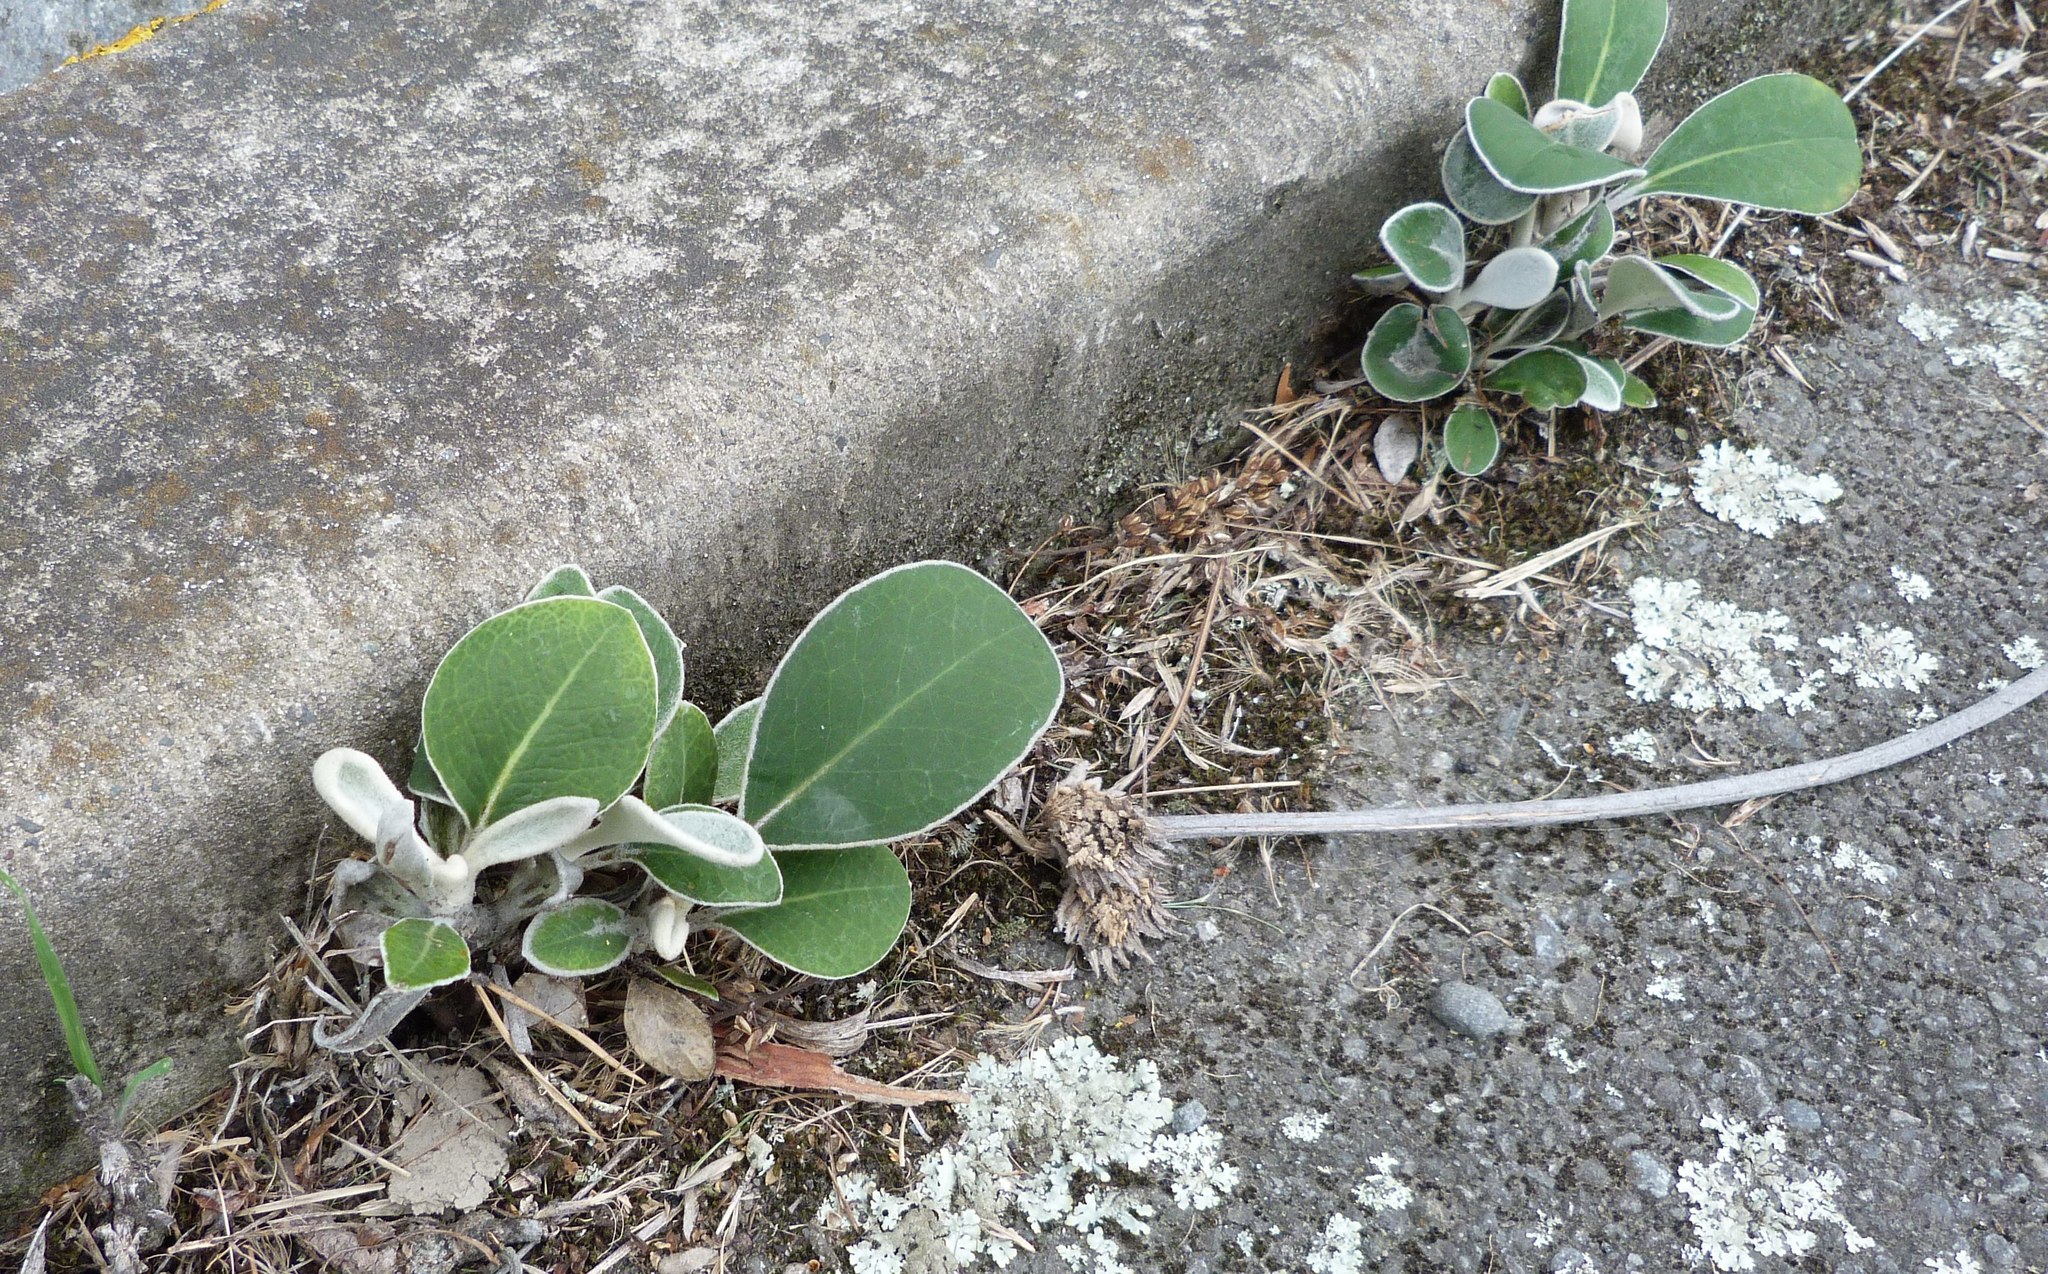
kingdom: Plantae
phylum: Tracheophyta
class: Magnoliopsida
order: Asterales
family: Asteraceae
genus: Pachystegia
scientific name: Pachystegia insignis
